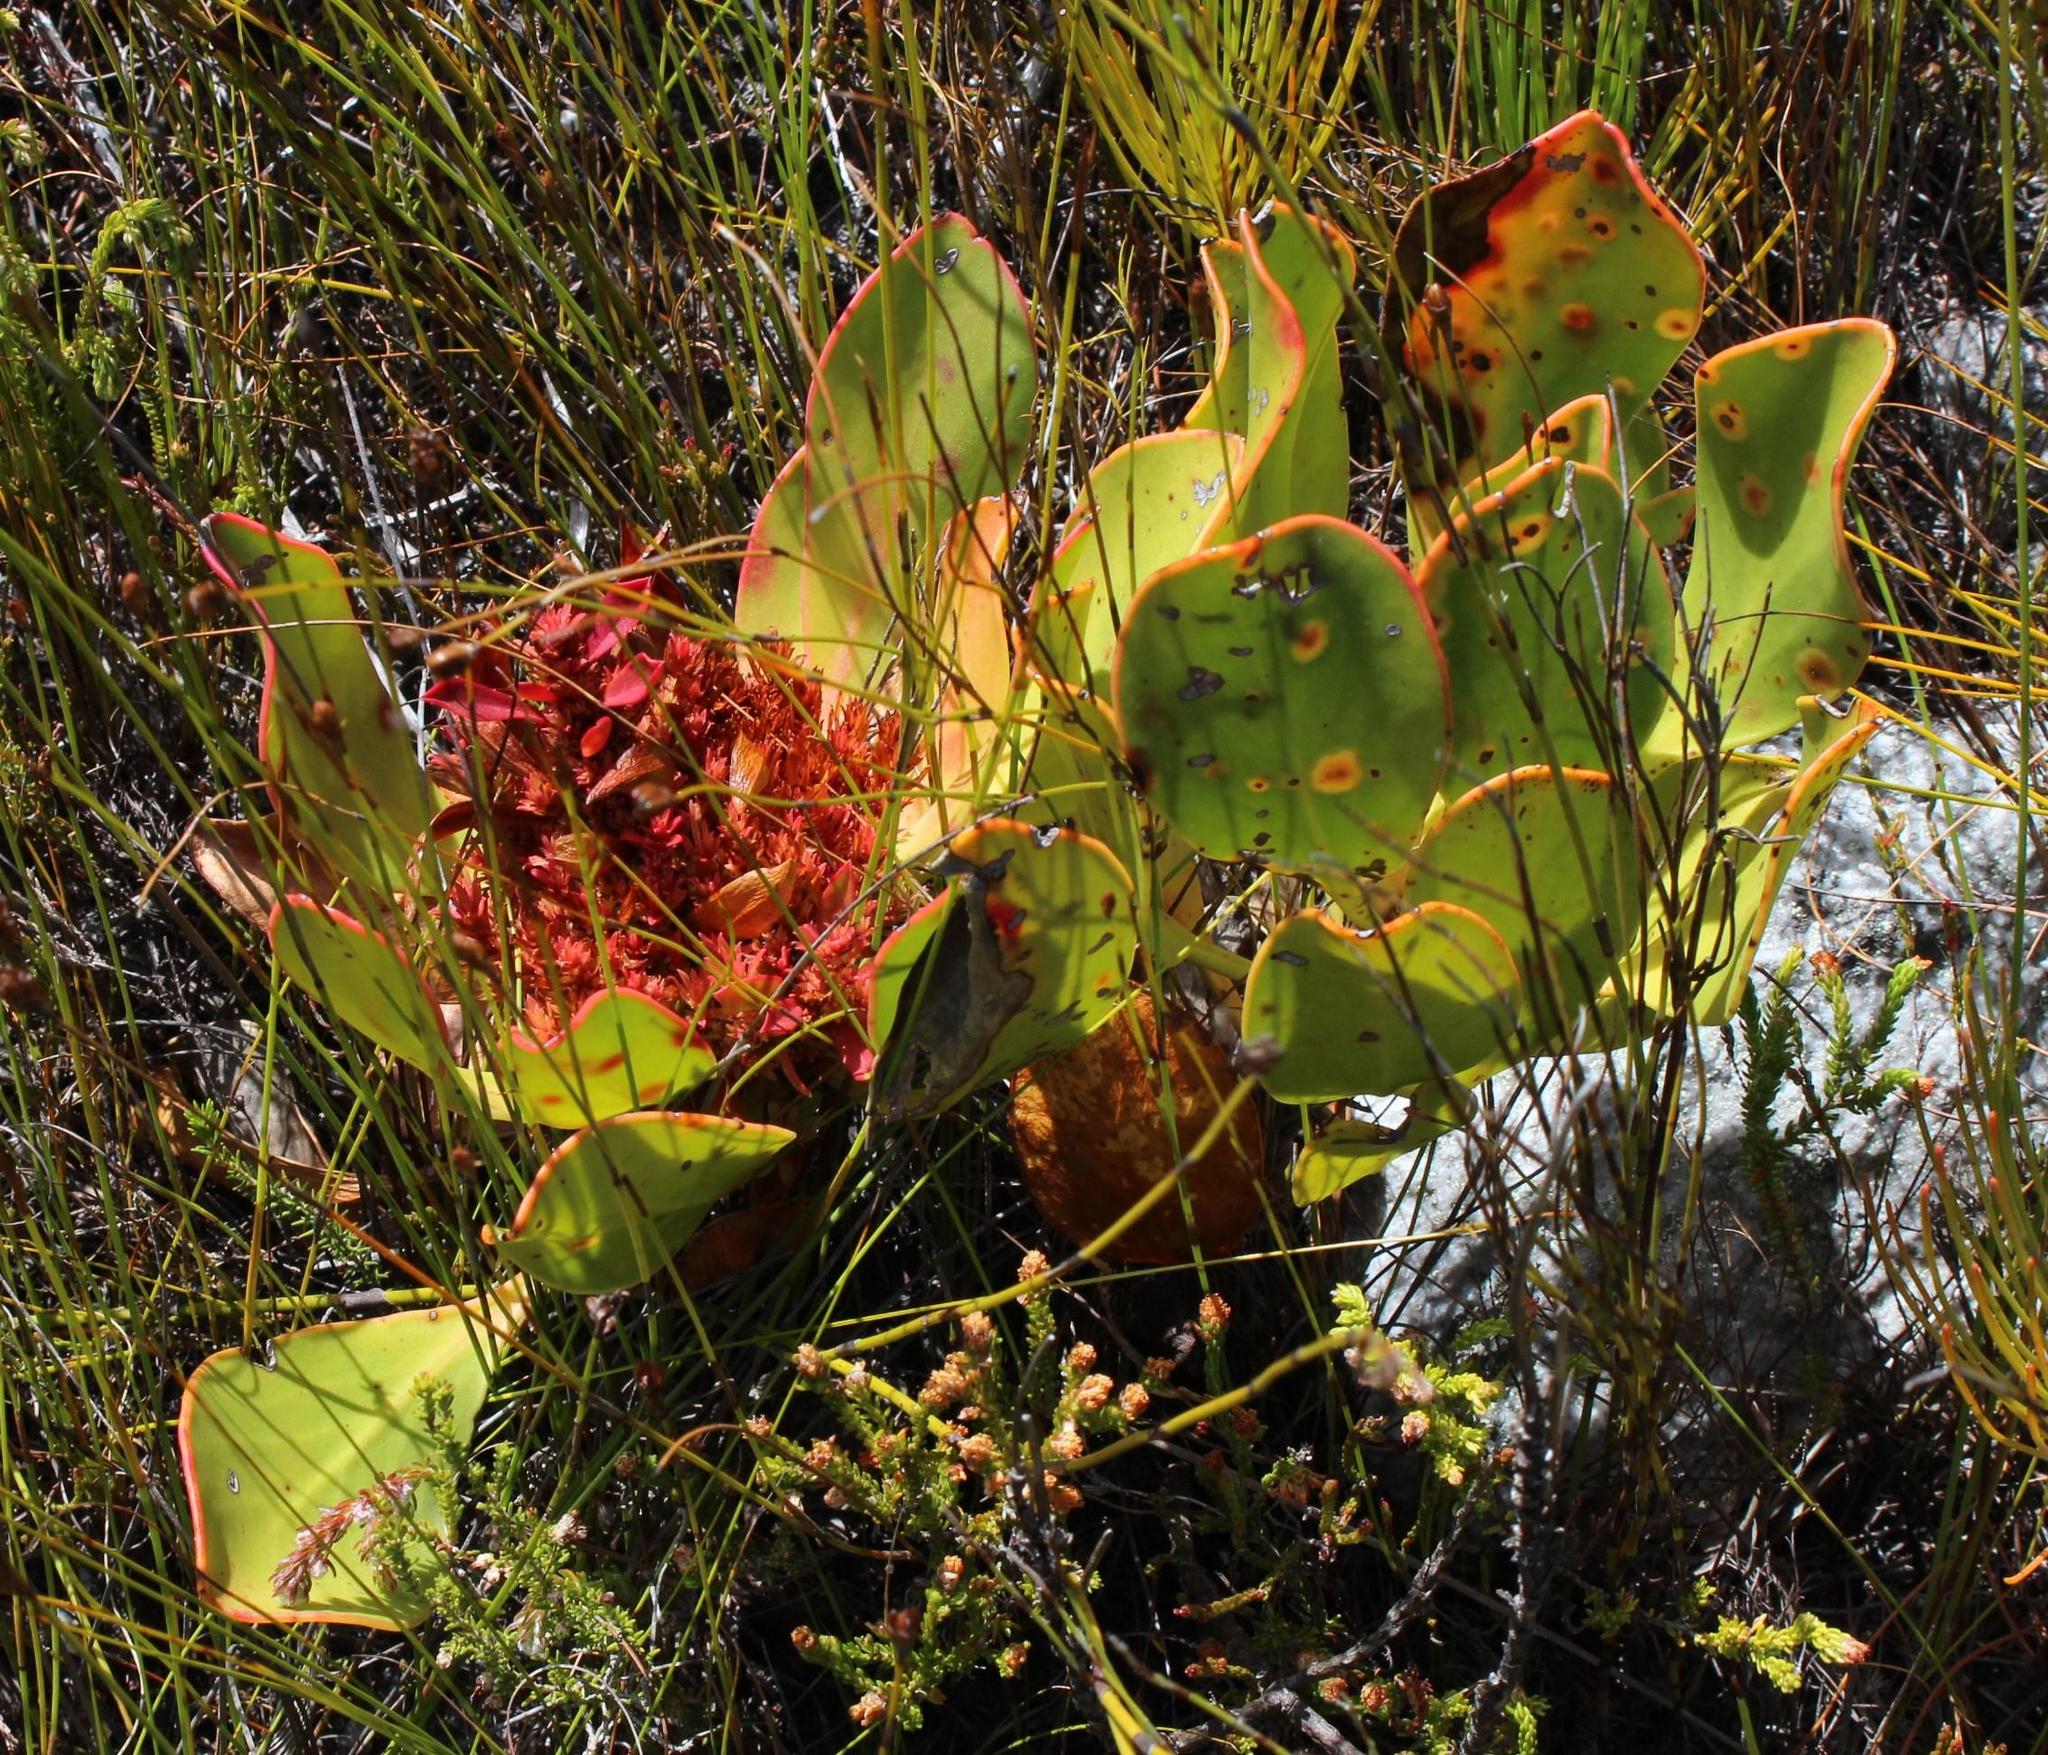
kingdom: Plantae
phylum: Tracheophyta
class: Magnoliopsida
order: Proteales
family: Proteaceae
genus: Protea
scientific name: Protea cynaroides
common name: King protea
